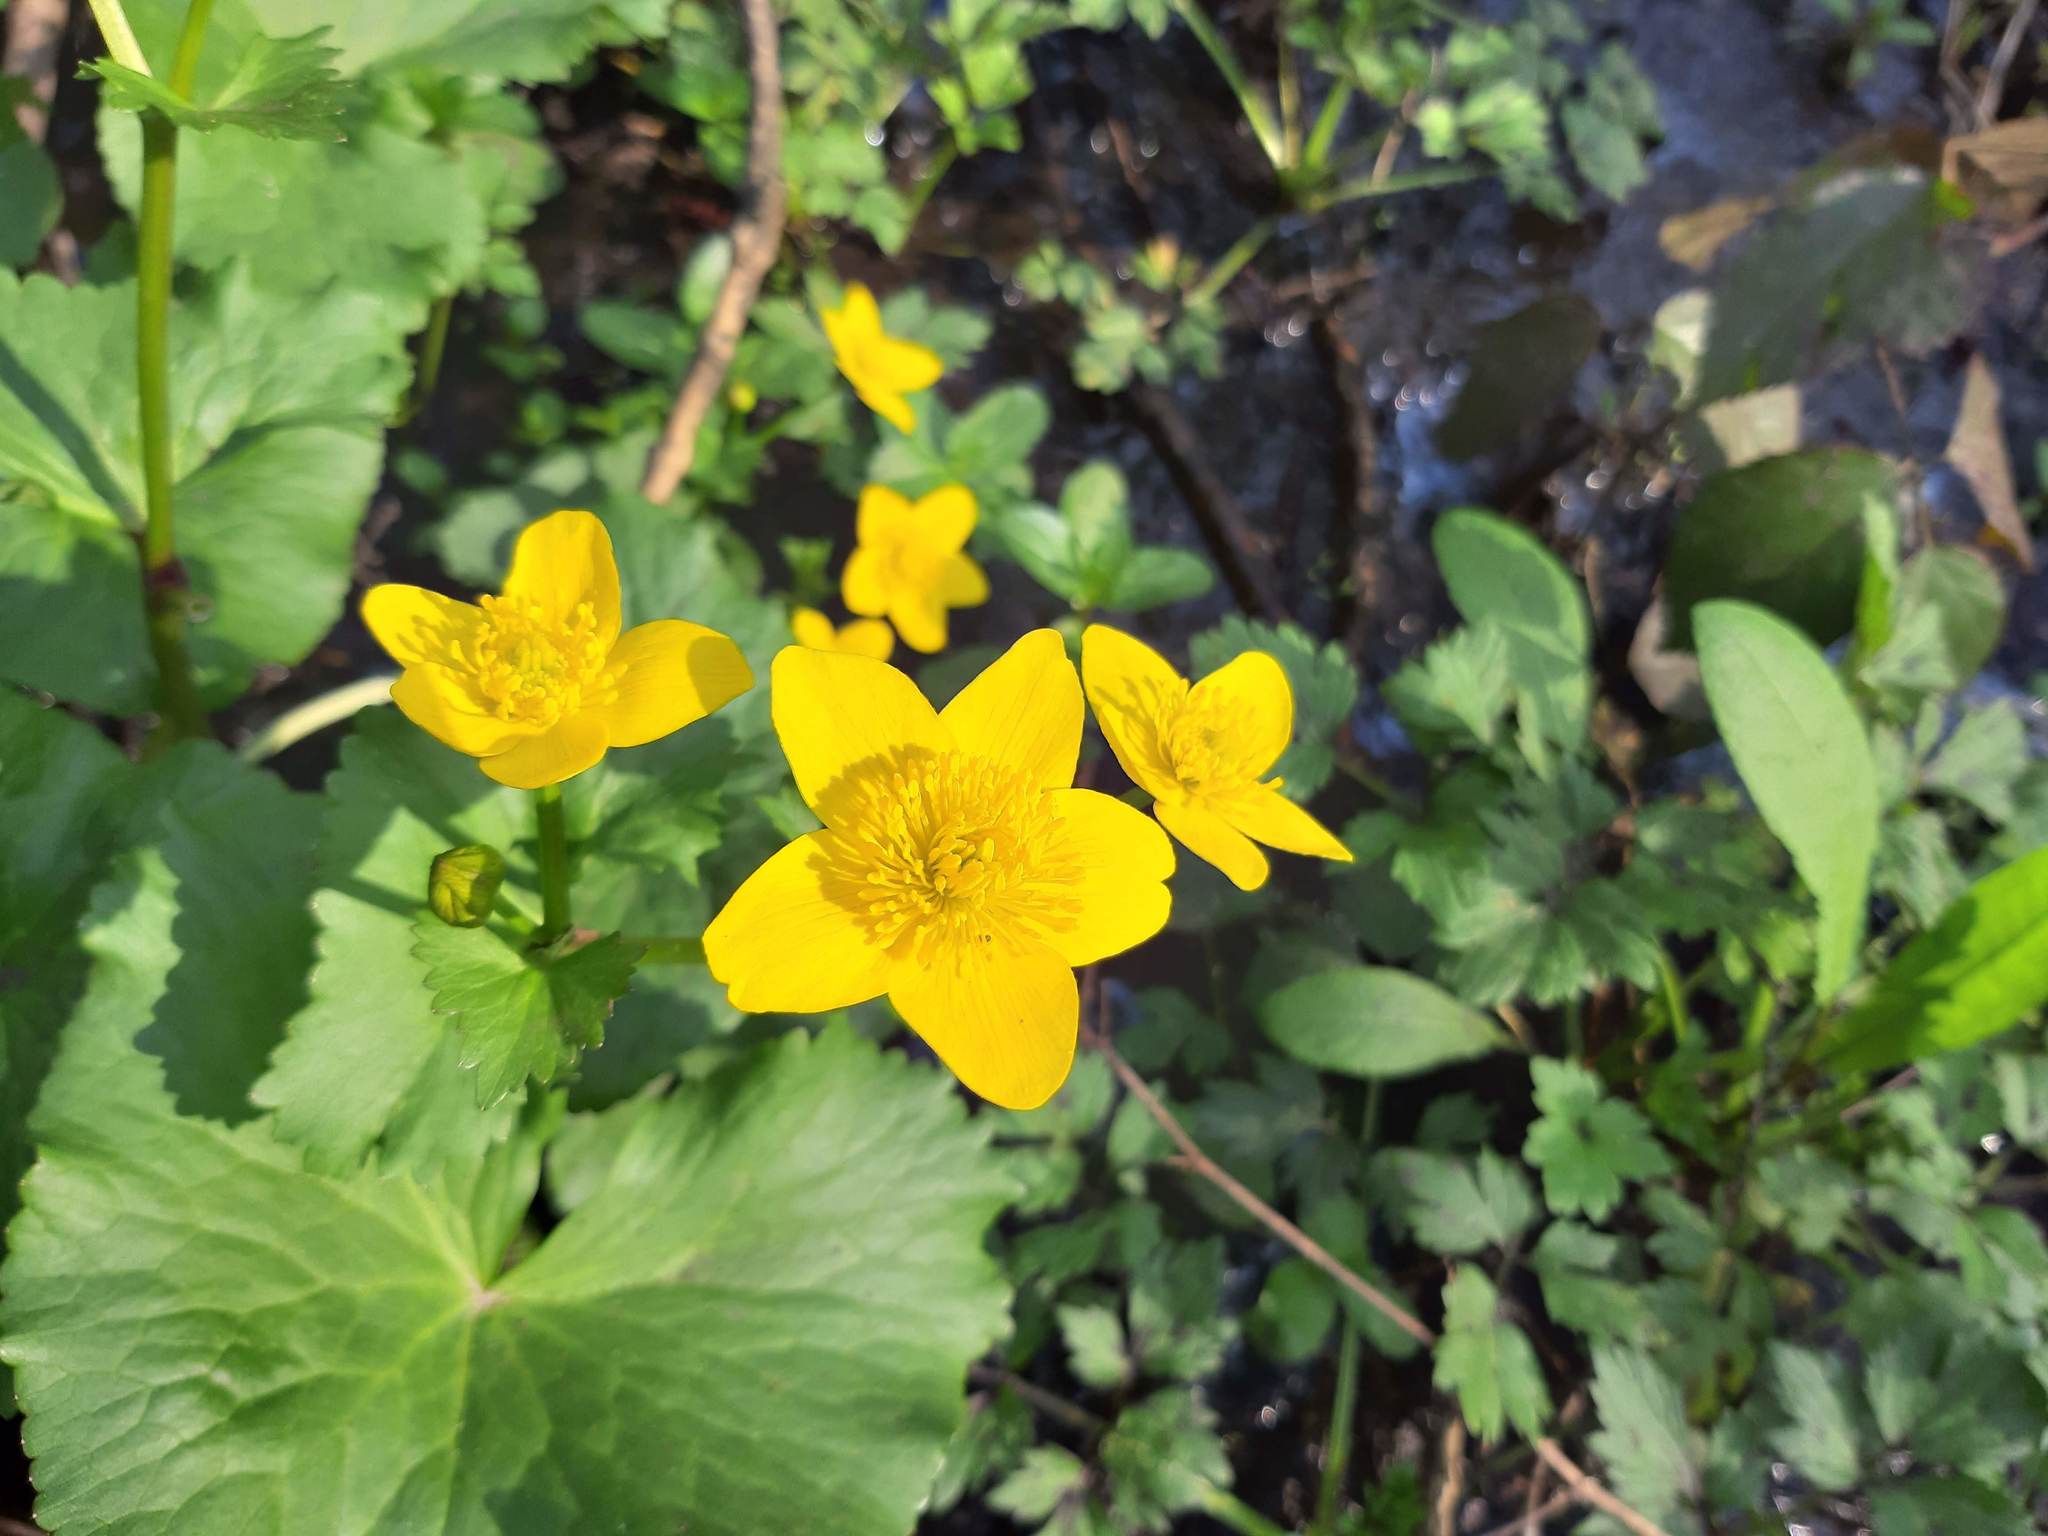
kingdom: Plantae
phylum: Tracheophyta
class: Magnoliopsida
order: Ranunculales
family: Ranunculaceae
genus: Caltha
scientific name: Caltha palustris
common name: Marsh marigold
